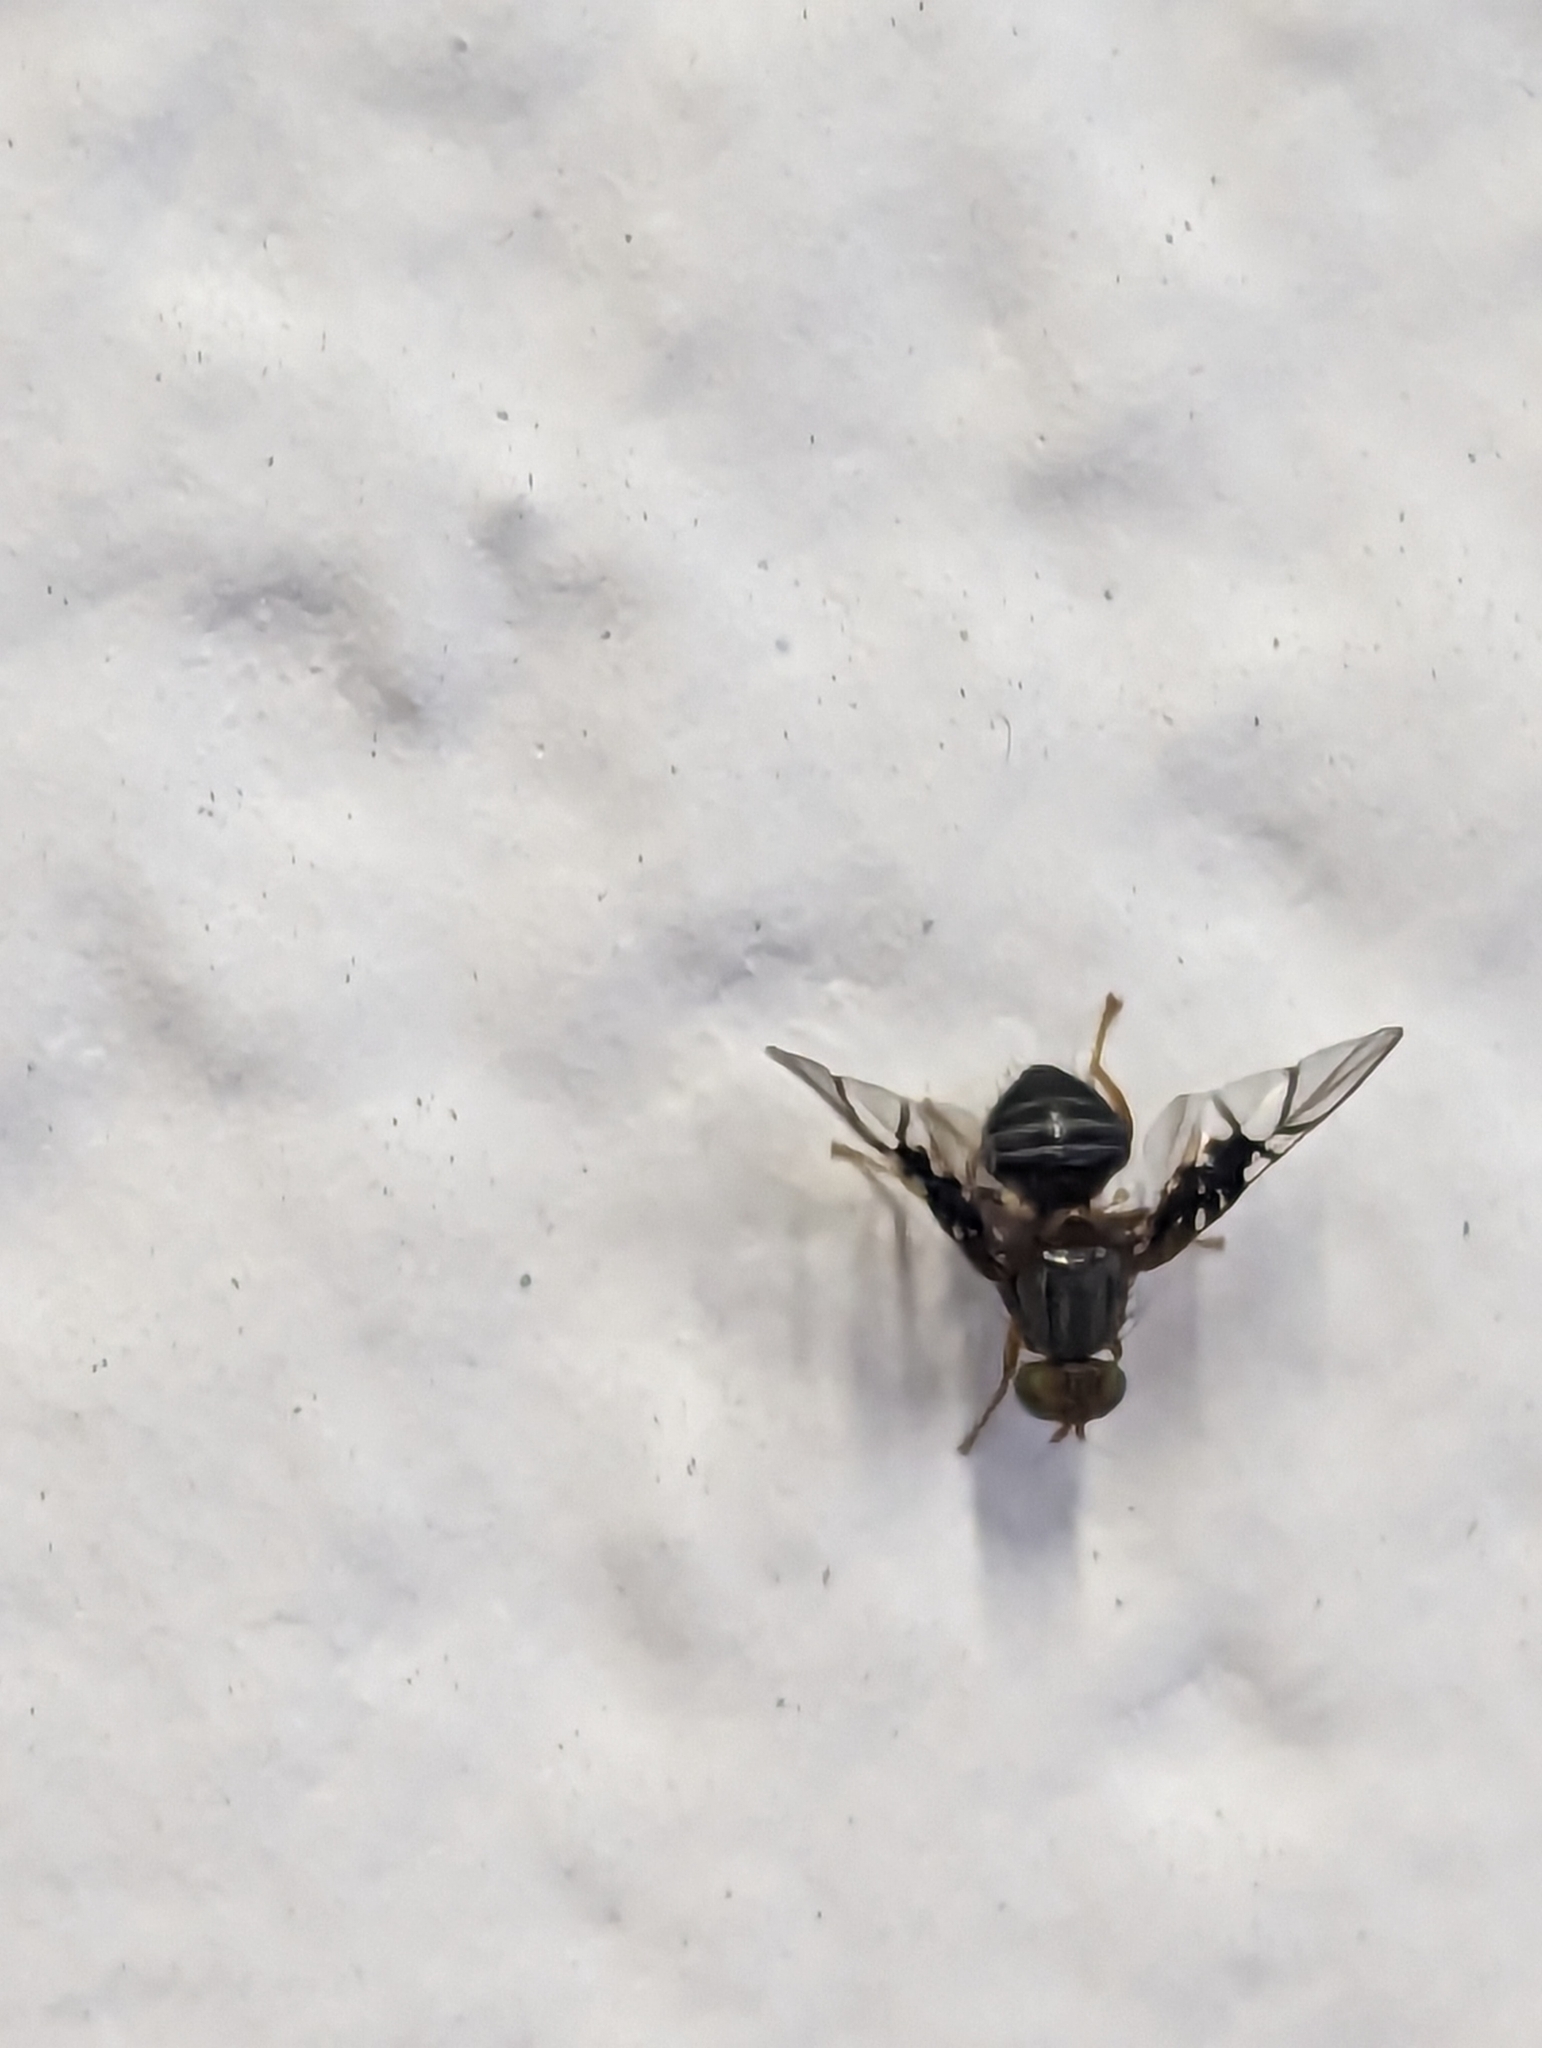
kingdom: Animalia
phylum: Arthropoda
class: Insecta
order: Diptera
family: Tephritidae
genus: Anomoia
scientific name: Anomoia purmunda
